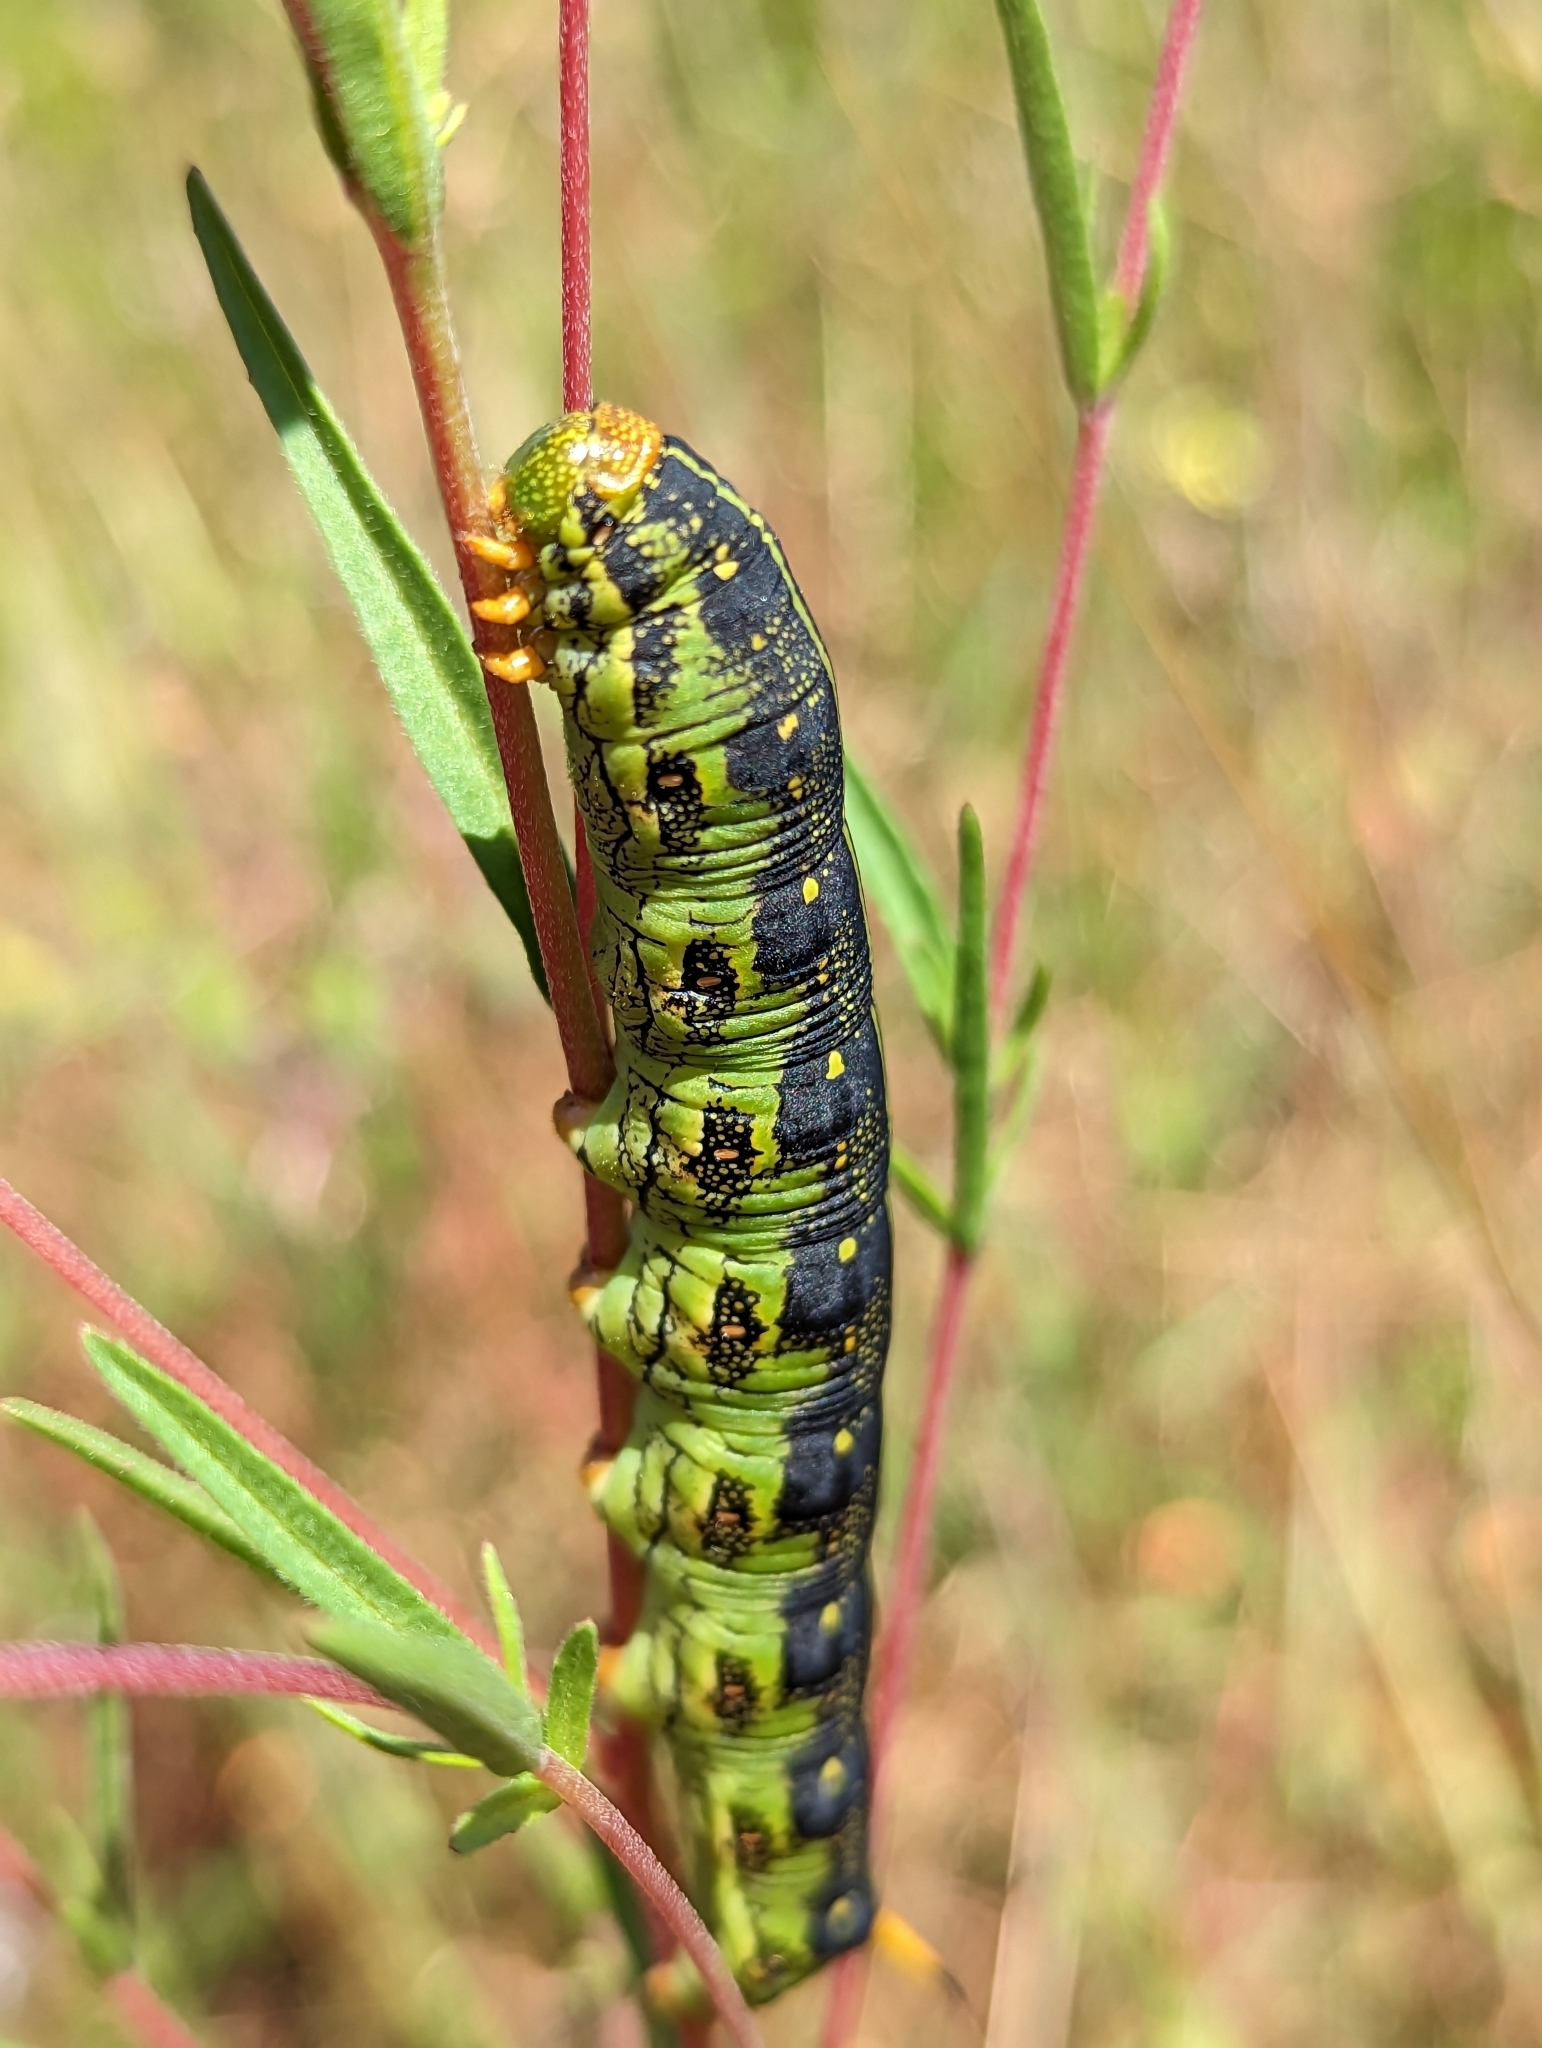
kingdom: Animalia
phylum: Arthropoda
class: Insecta
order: Lepidoptera
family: Sphingidae
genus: Hyles
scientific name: Hyles lineata
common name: White-lined sphinx
